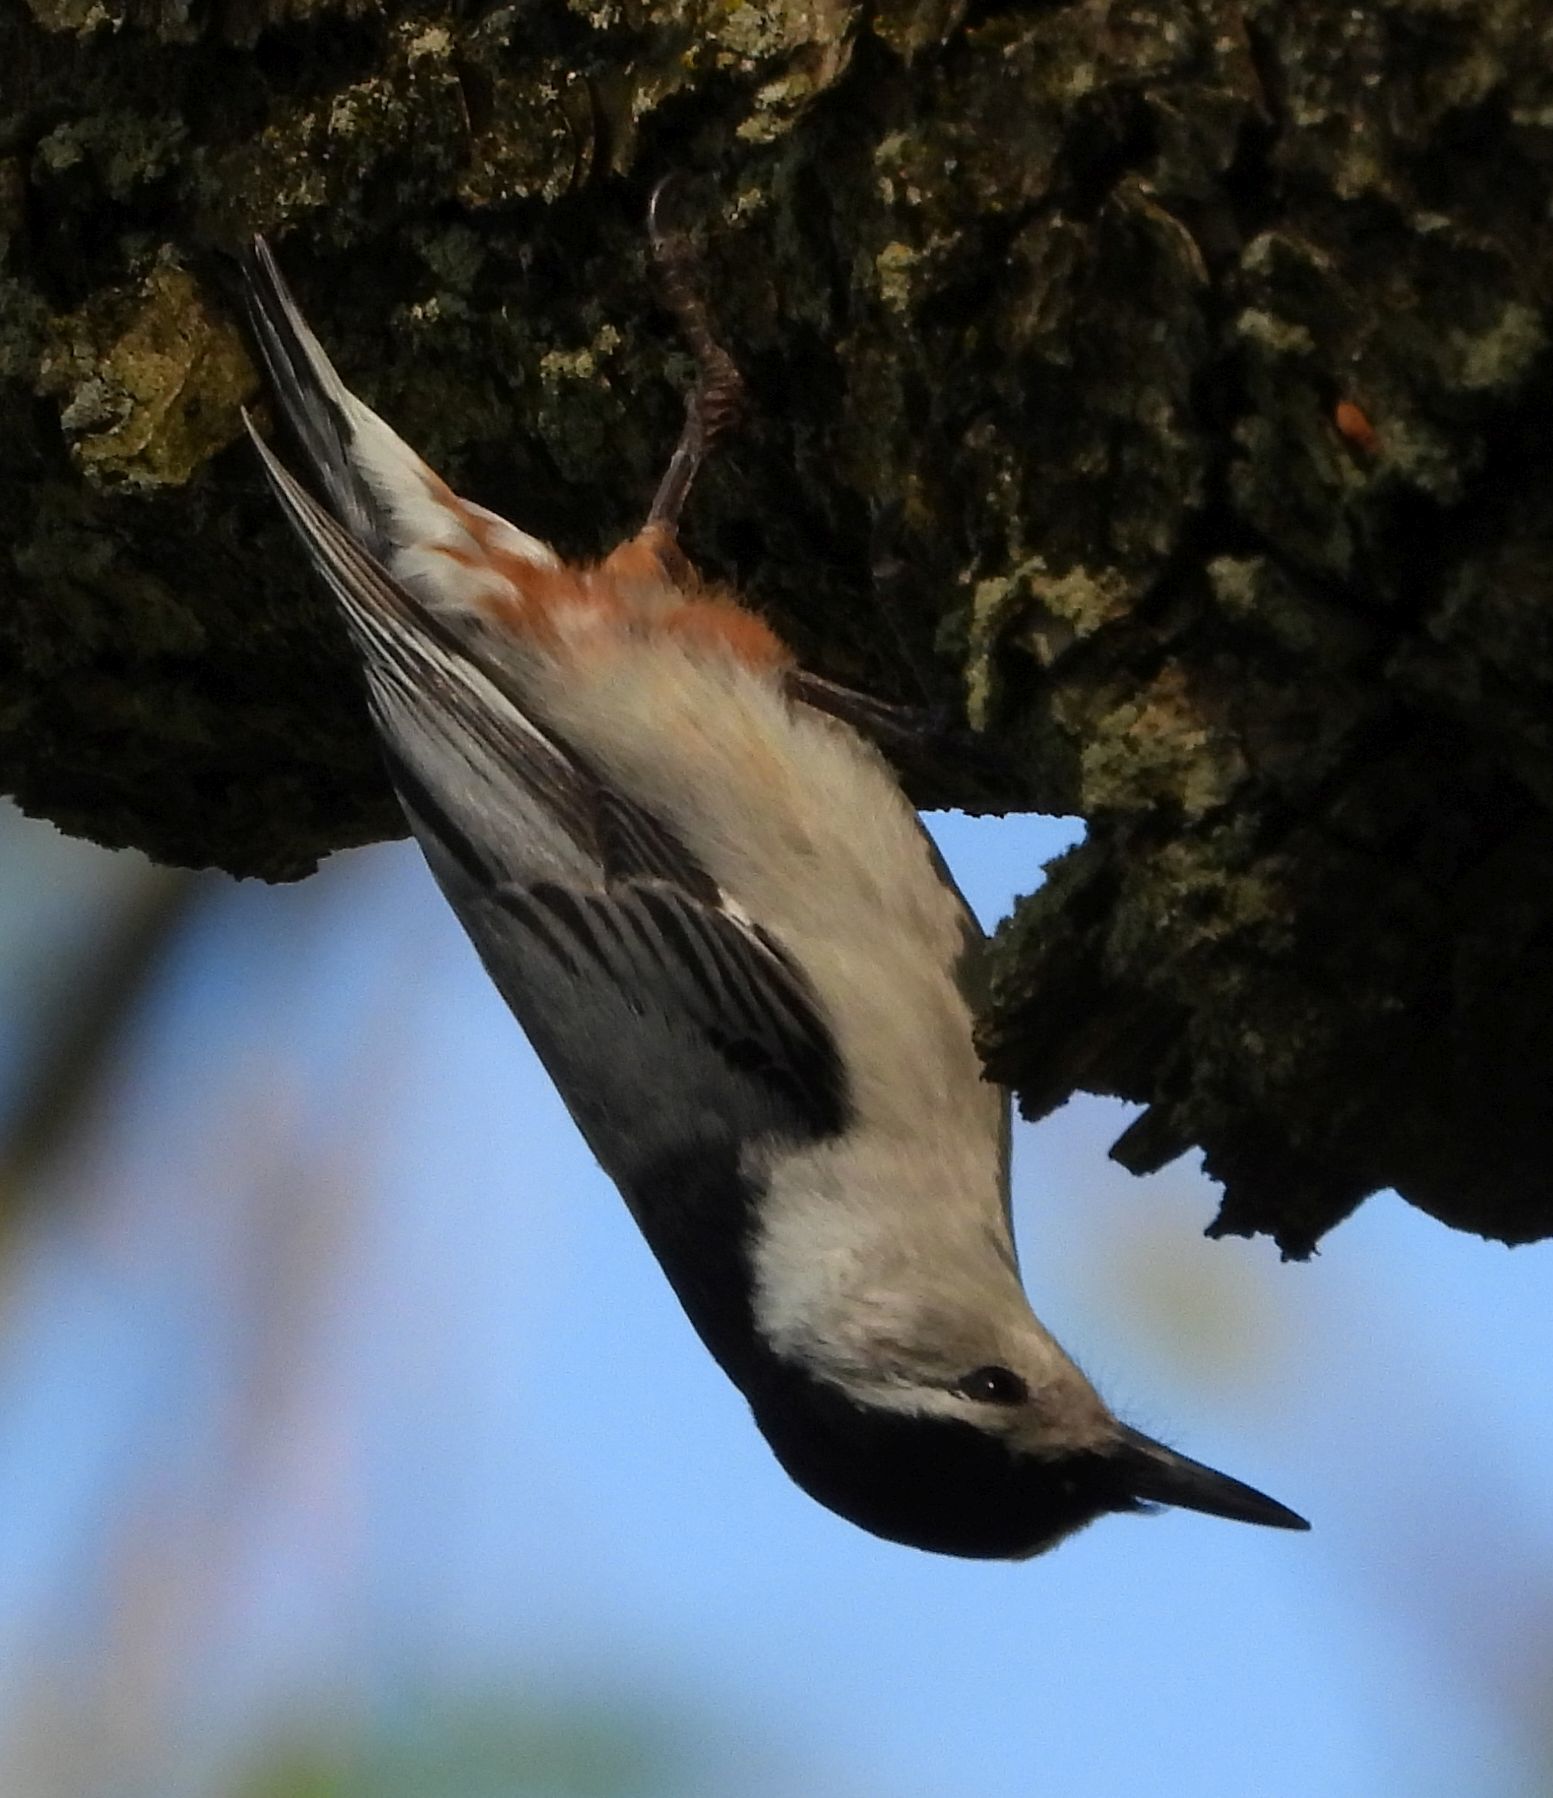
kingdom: Animalia
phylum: Chordata
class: Aves
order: Passeriformes
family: Sittidae
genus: Sitta
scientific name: Sitta carolinensis
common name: White-breasted nuthatch
